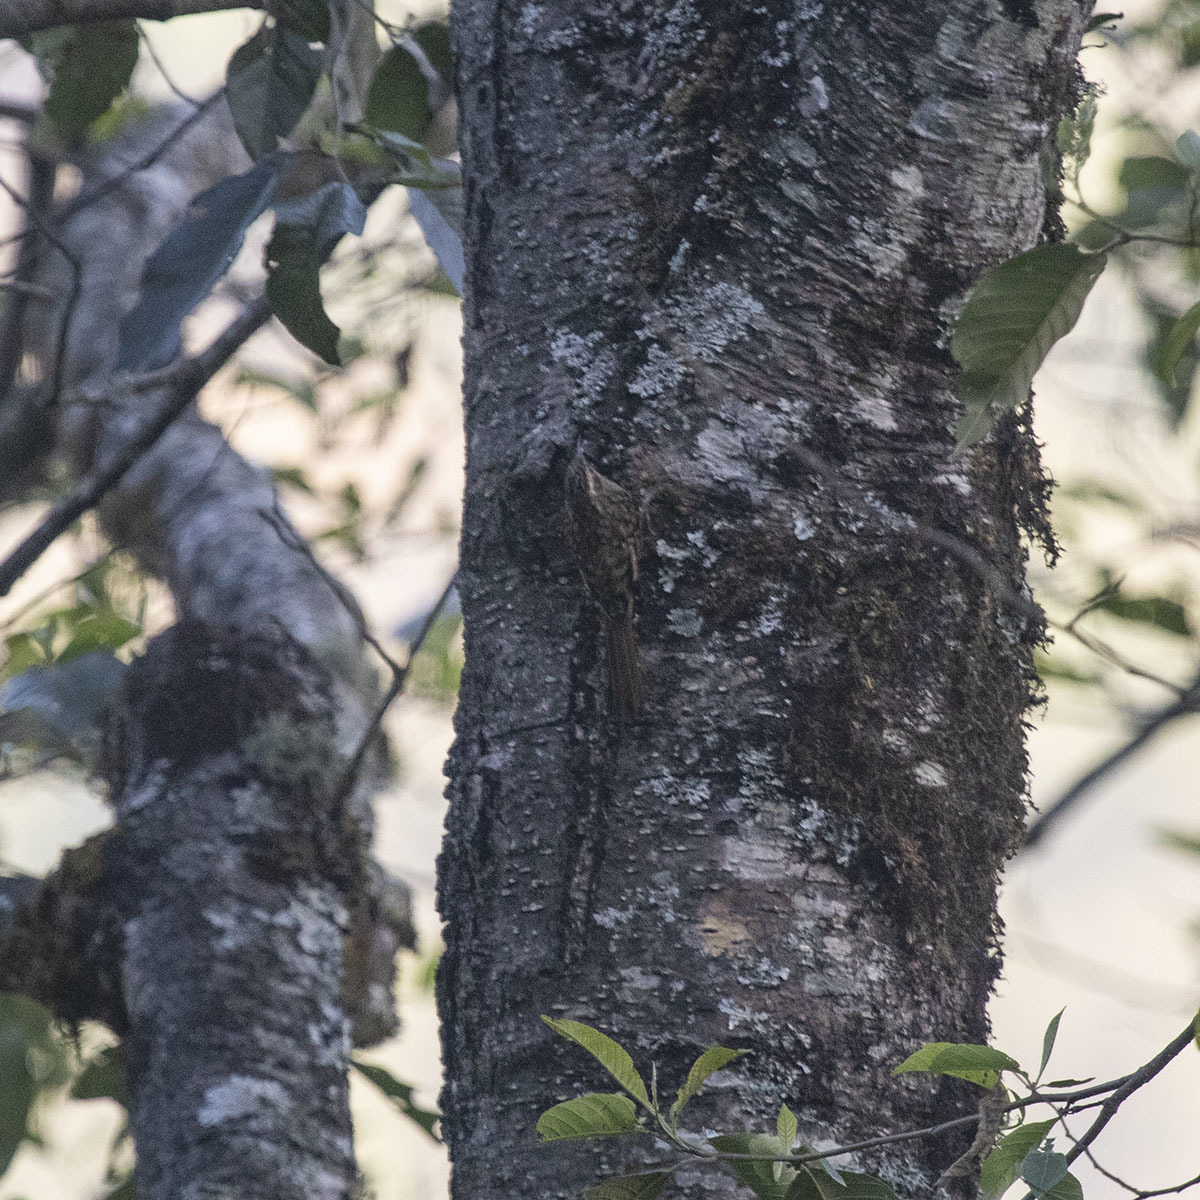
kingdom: Animalia
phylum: Chordata
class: Aves
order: Passeriformes
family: Certhiidae
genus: Certhia
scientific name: Certhia hodgsoni
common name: Hodgson's treecreeper
